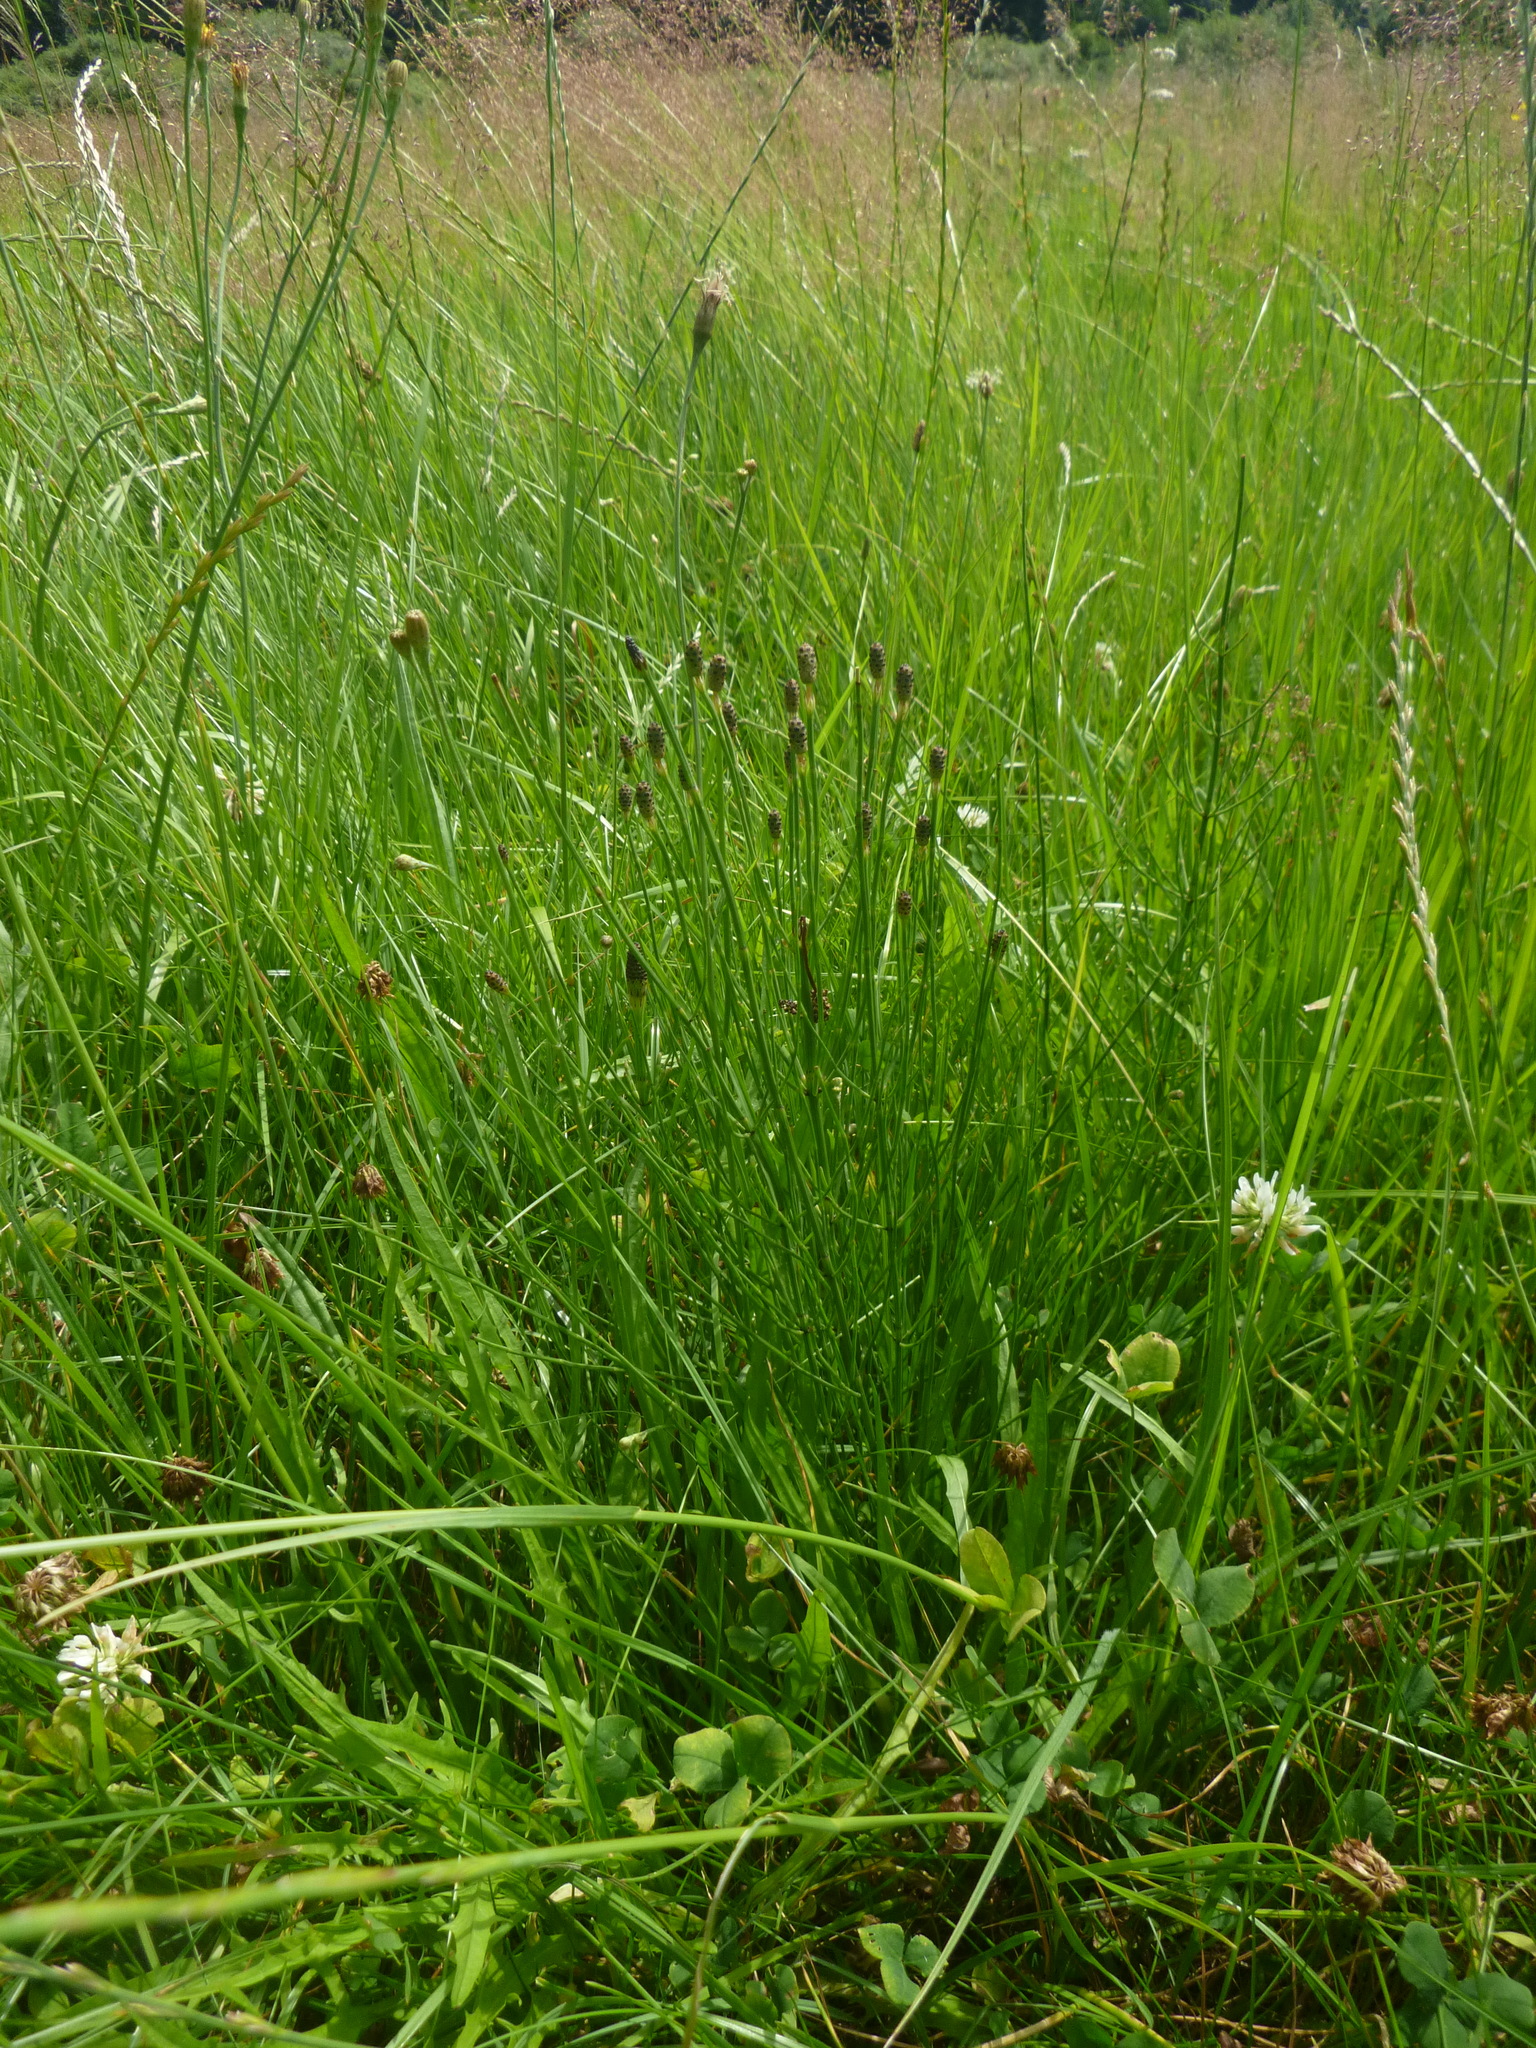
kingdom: Plantae
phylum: Tracheophyta
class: Polypodiopsida
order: Equisetales
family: Equisetaceae
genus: Equisetum
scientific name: Equisetum palustre
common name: Marsh horsetail
